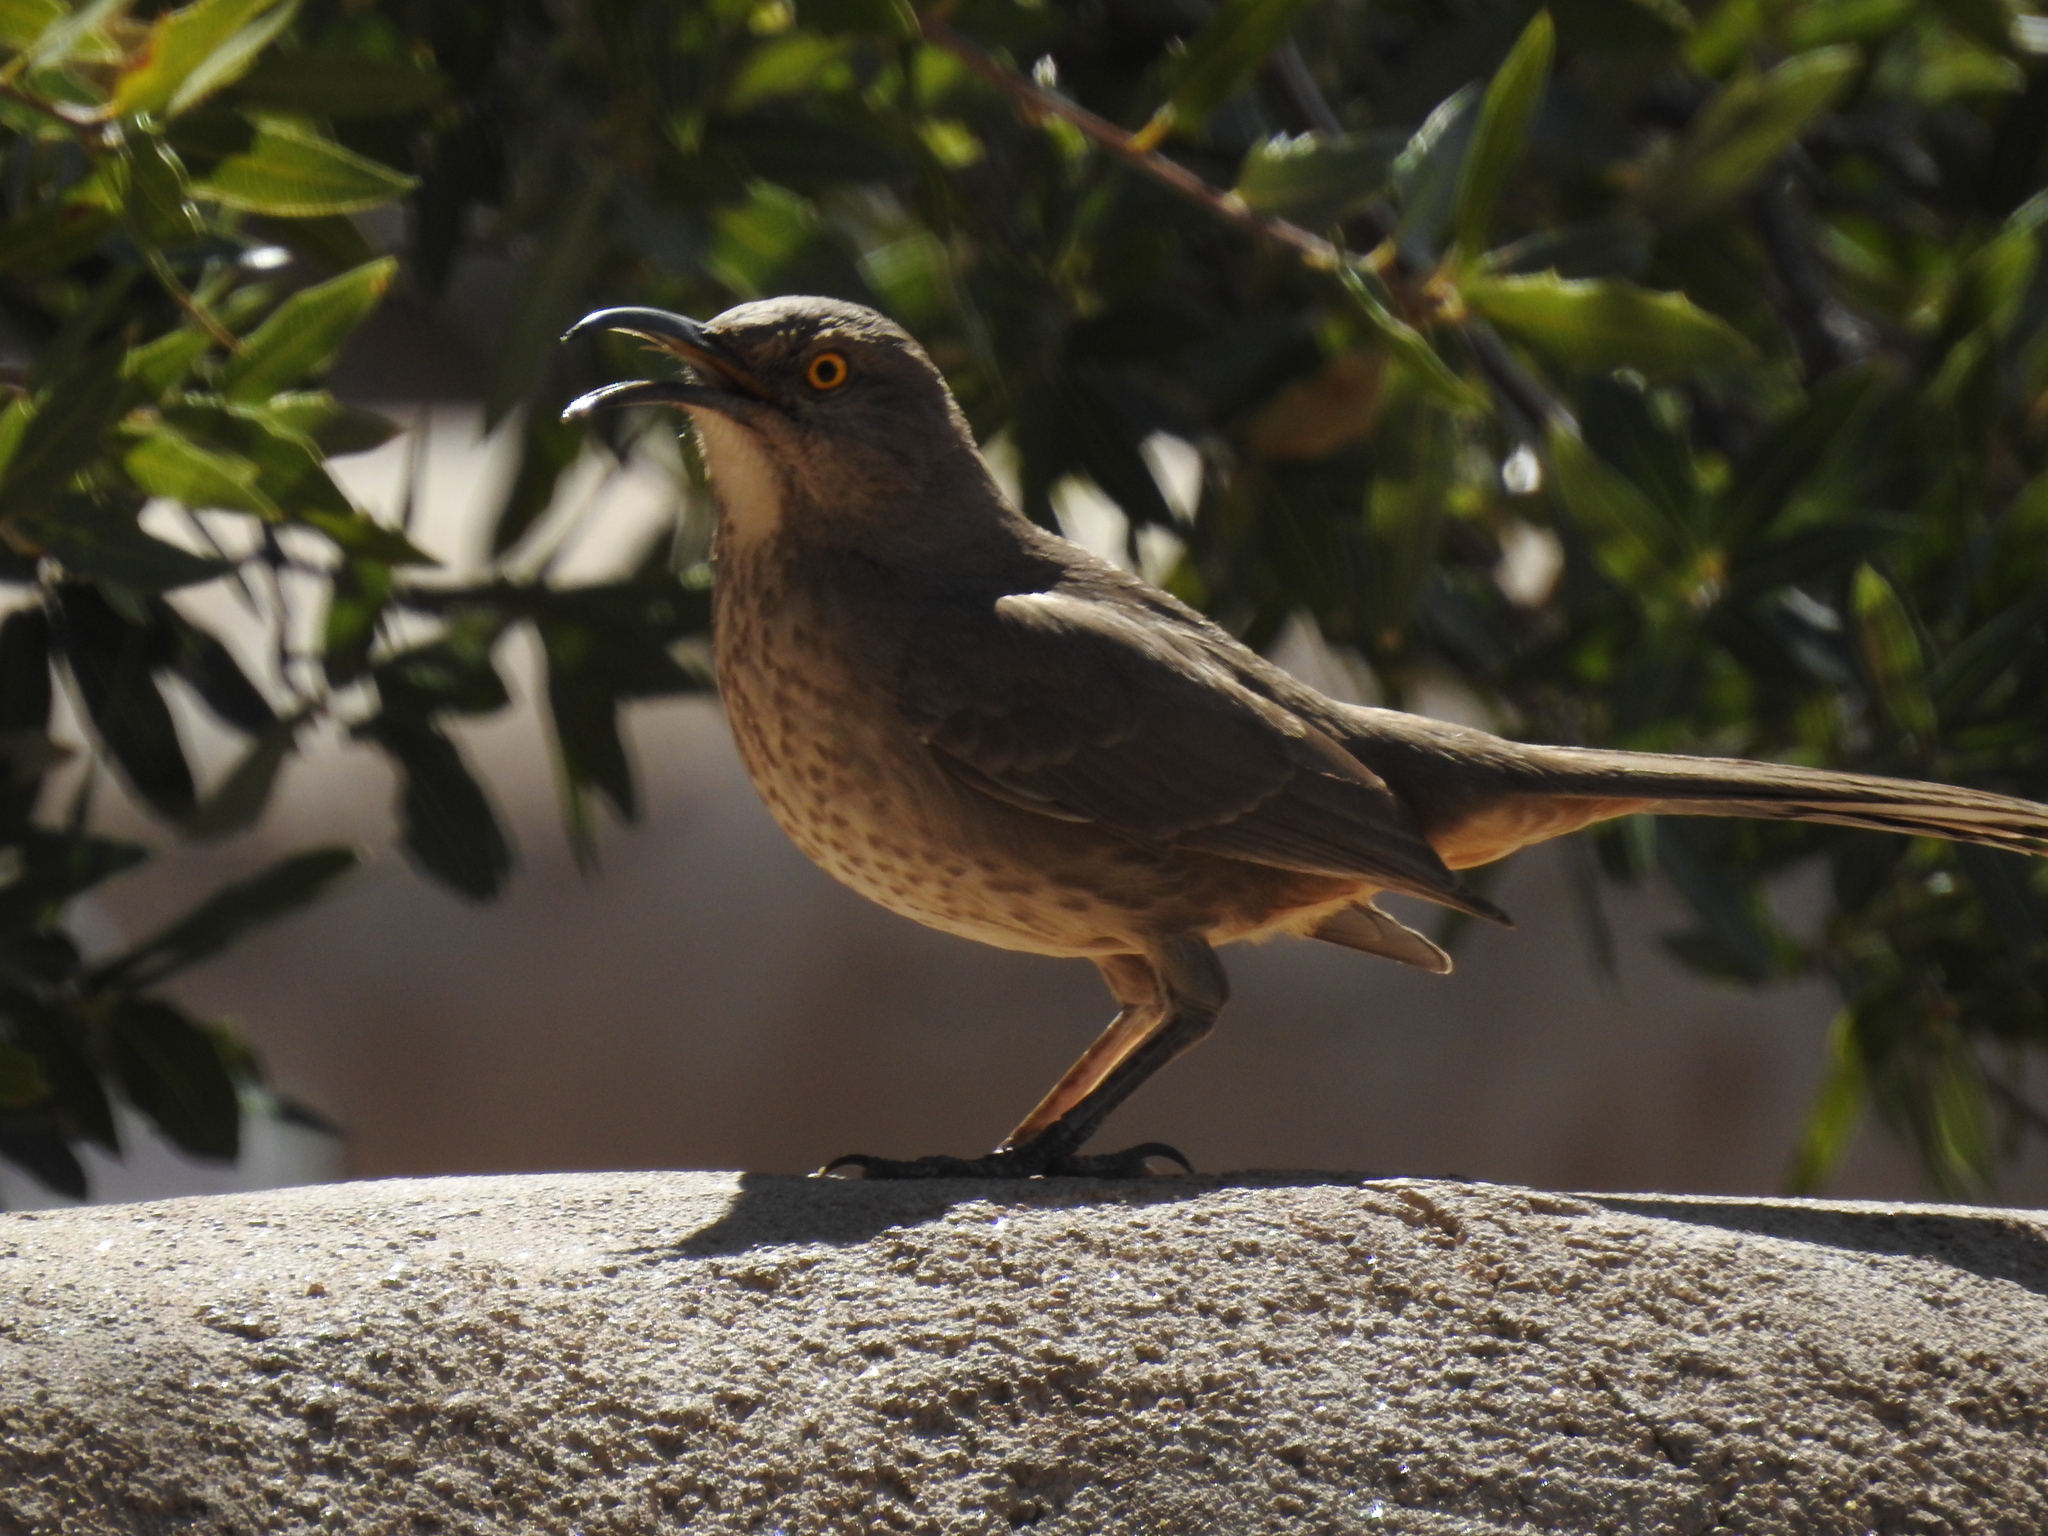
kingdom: Animalia
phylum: Chordata
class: Aves
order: Passeriformes
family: Mimidae
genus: Toxostoma
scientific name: Toxostoma curvirostre
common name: Curve-billed thrasher
